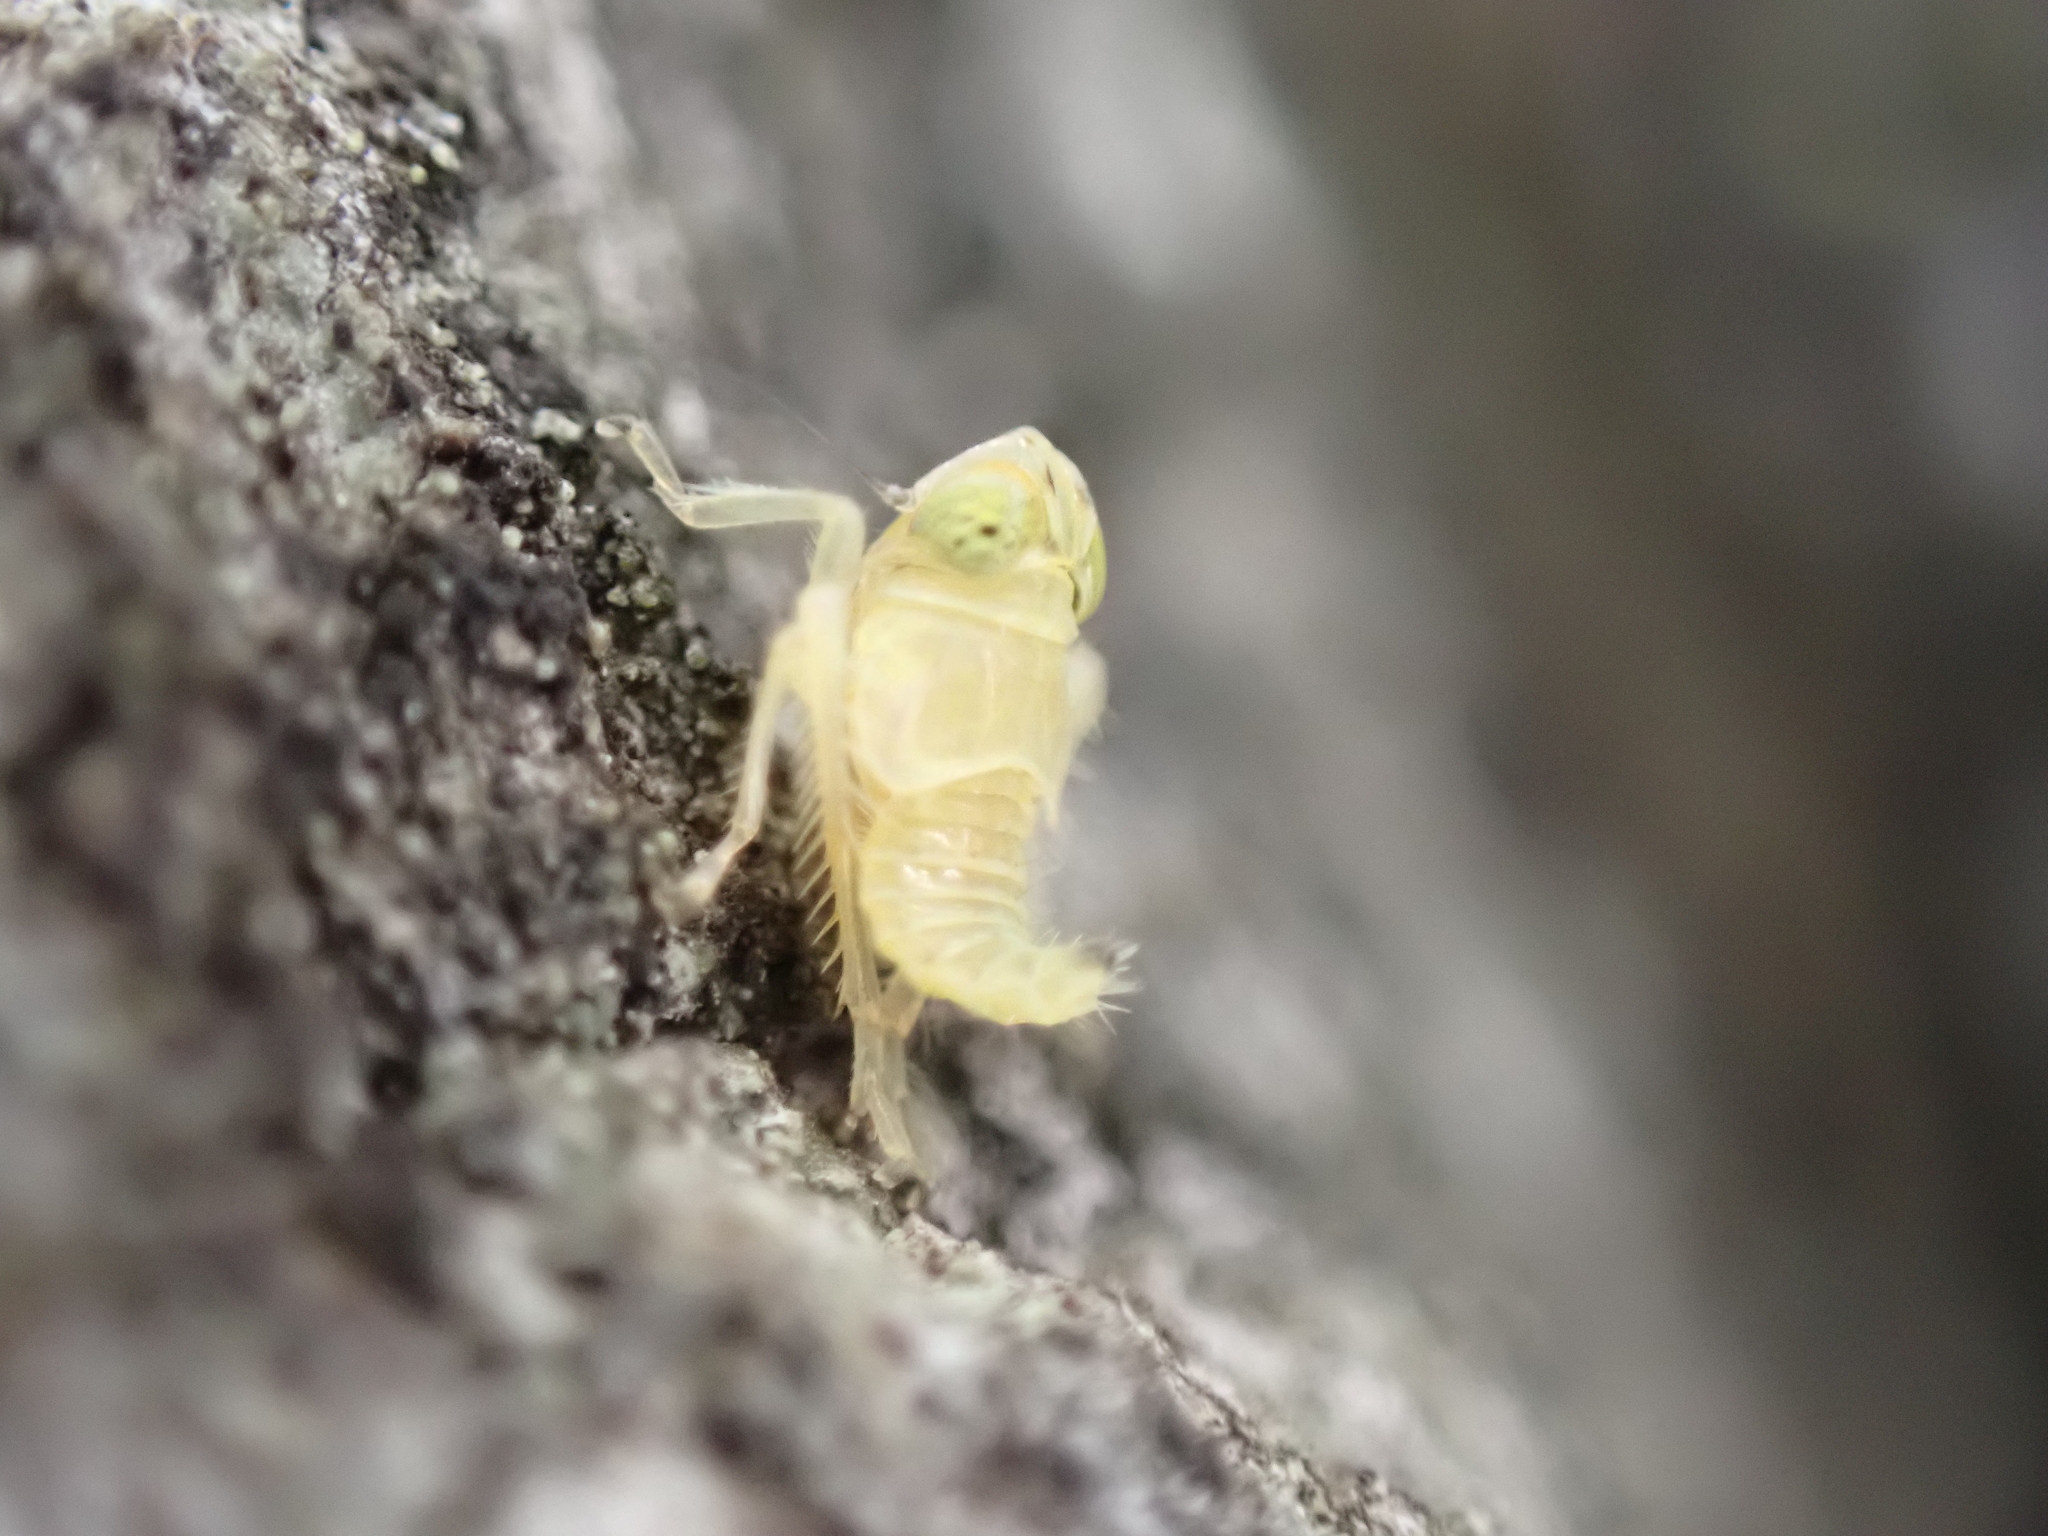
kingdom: Animalia
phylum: Arthropoda
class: Insecta
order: Hemiptera
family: Cicadellidae
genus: Jikradia
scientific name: Jikradia olitoria
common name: Coppery leafhopper
